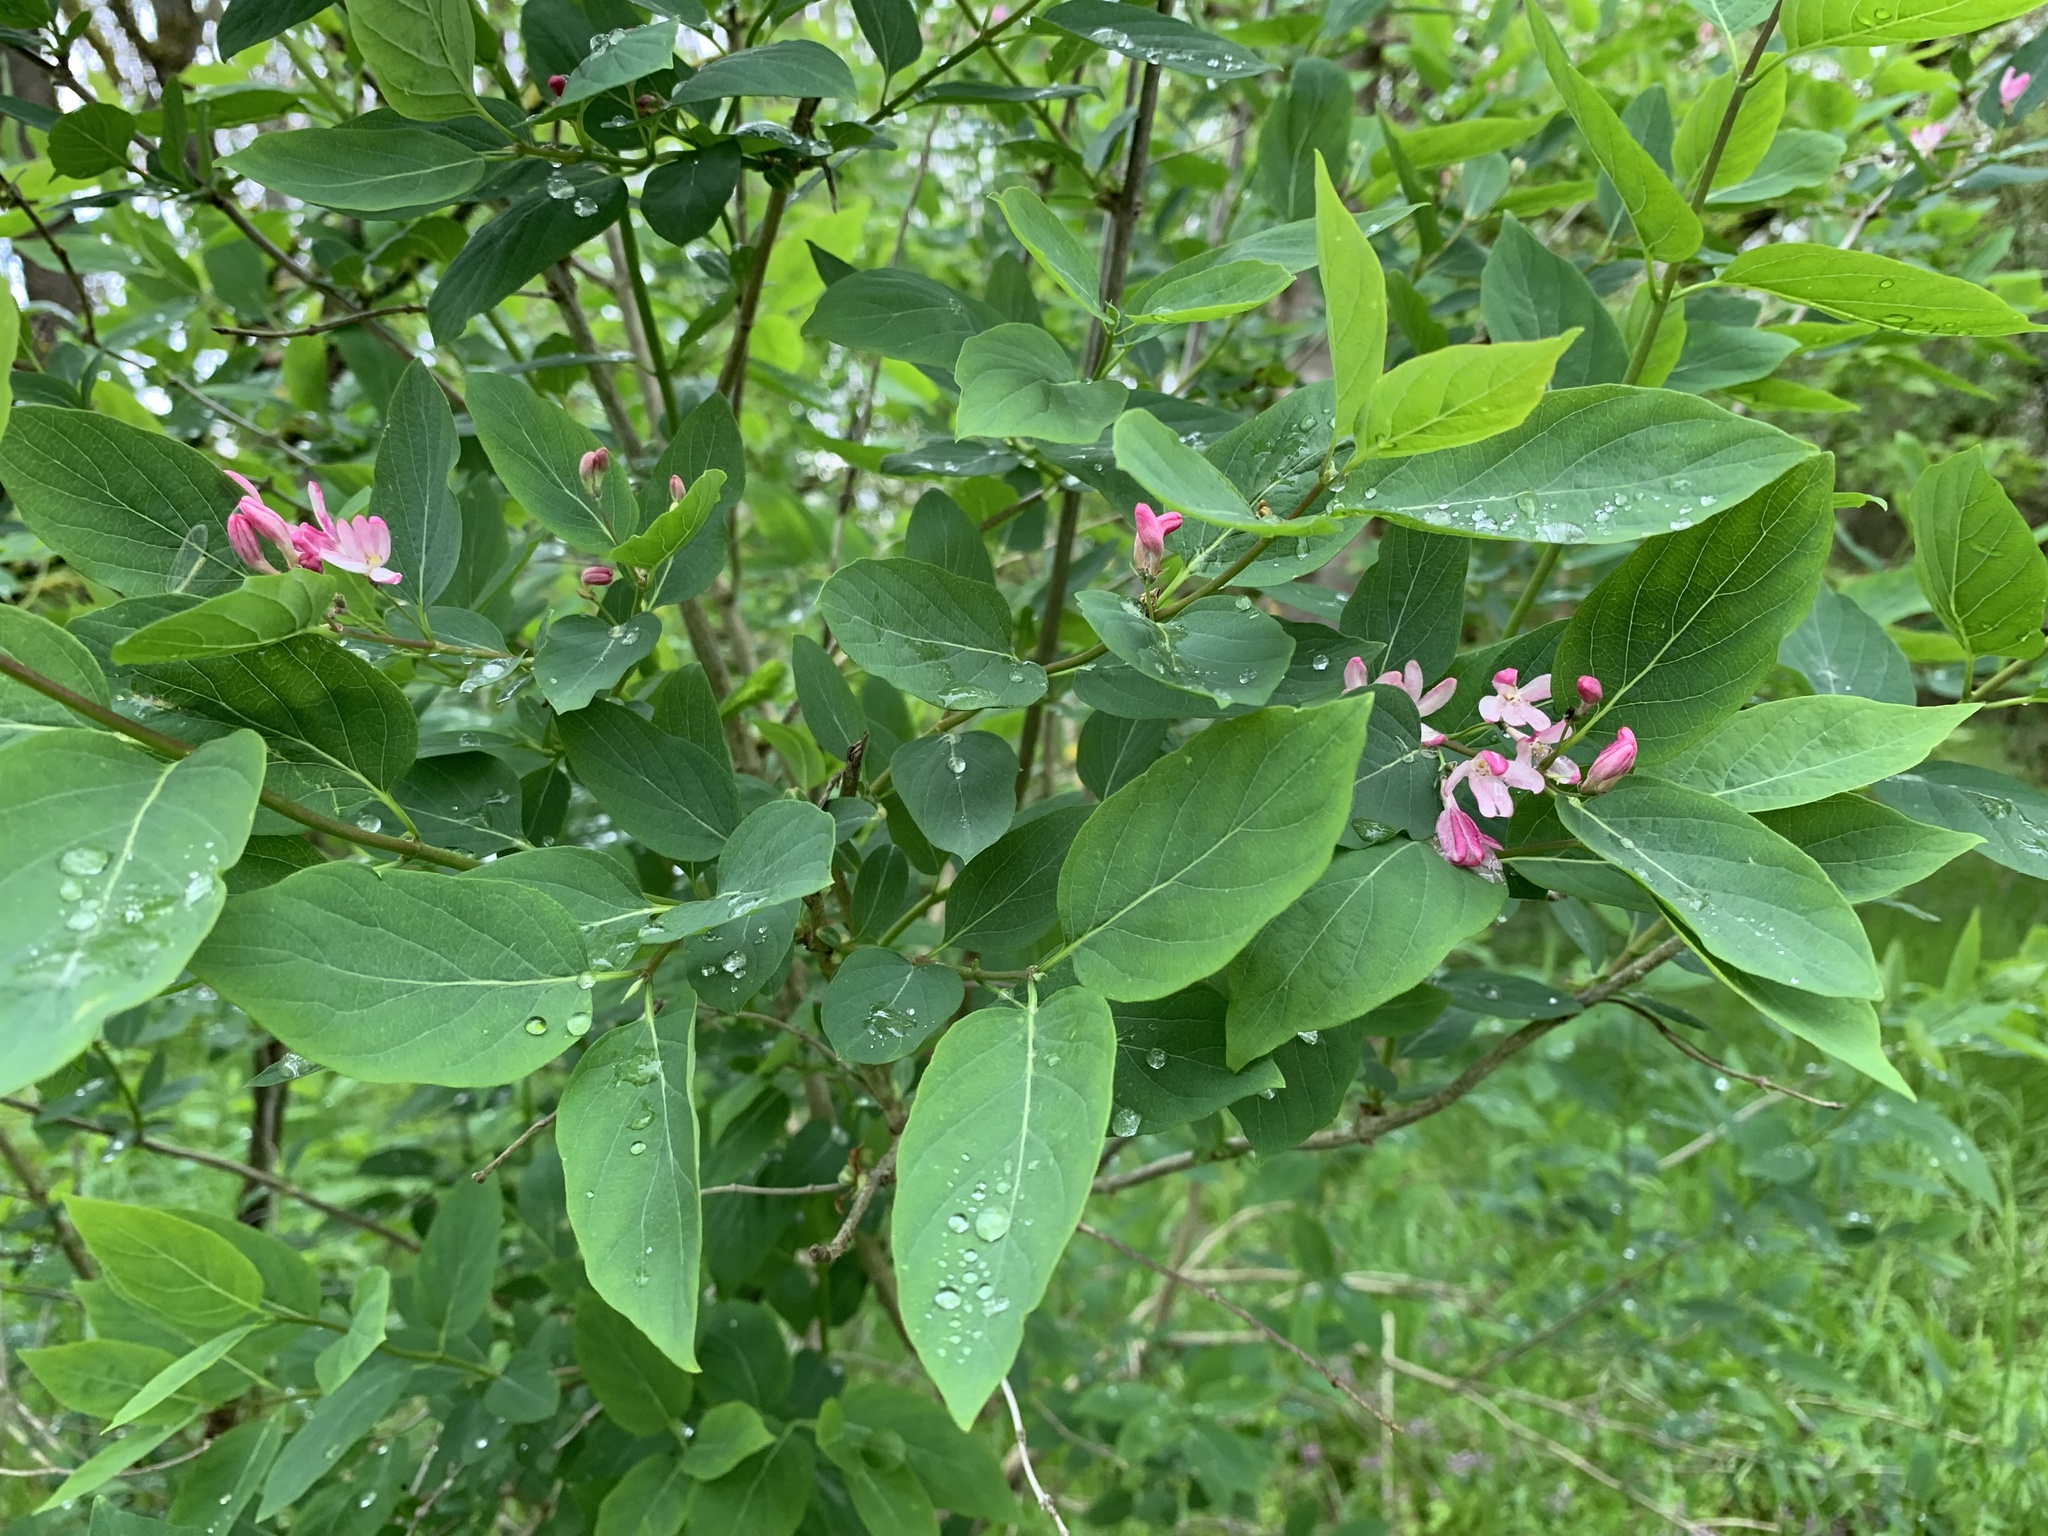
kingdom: Plantae
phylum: Tracheophyta
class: Magnoliopsida
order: Dipsacales
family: Caprifoliaceae
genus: Lonicera
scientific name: Lonicera tatarica
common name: Tatarian honeysuckle
